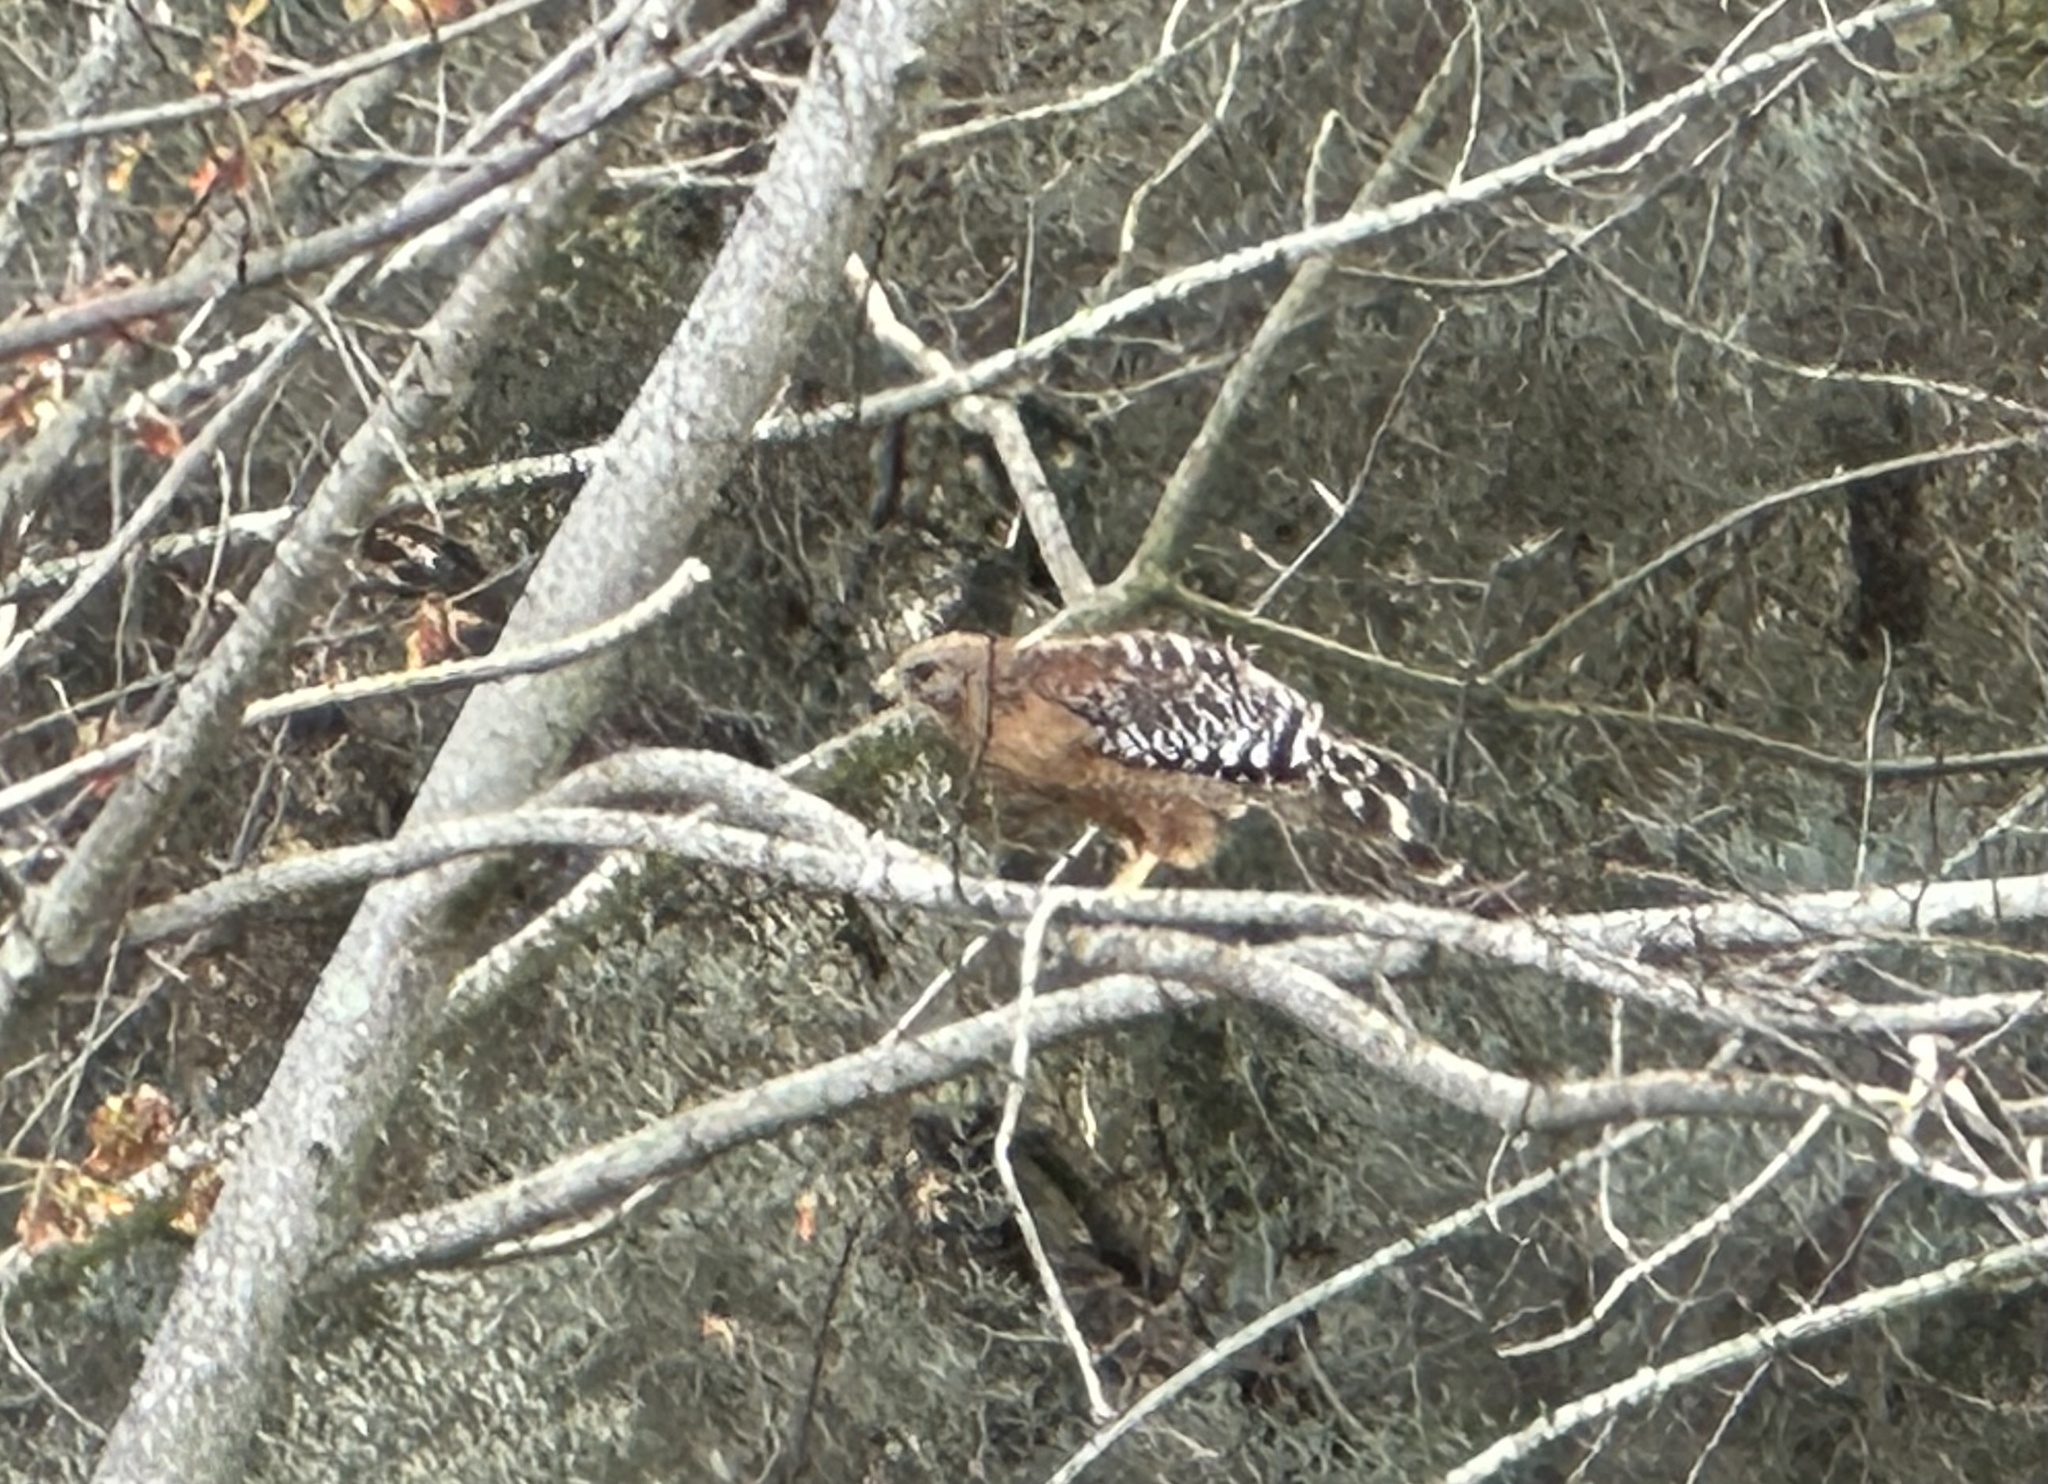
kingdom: Animalia
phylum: Chordata
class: Aves
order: Accipitriformes
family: Accipitridae
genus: Buteo
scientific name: Buteo lineatus
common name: Red-shouldered hawk
